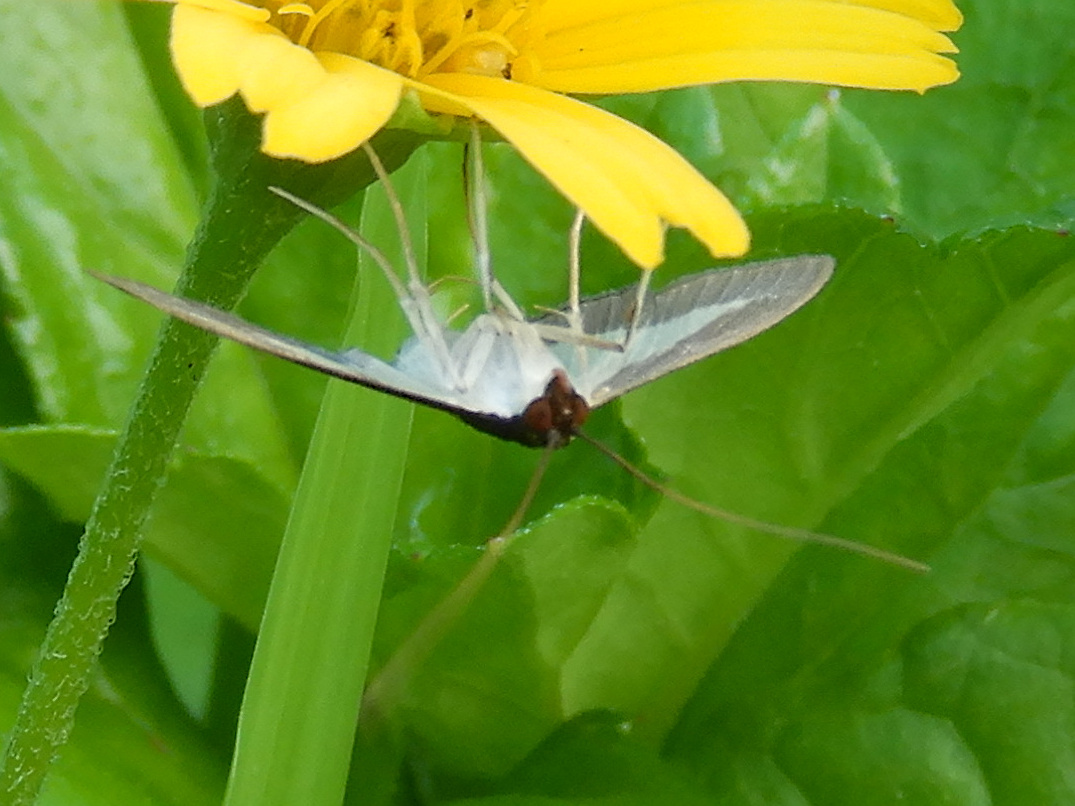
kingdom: Animalia
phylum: Arthropoda
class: Insecta
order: Lepidoptera
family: Crambidae
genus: Diaphania
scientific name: Diaphania indica
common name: Cucumber moth
